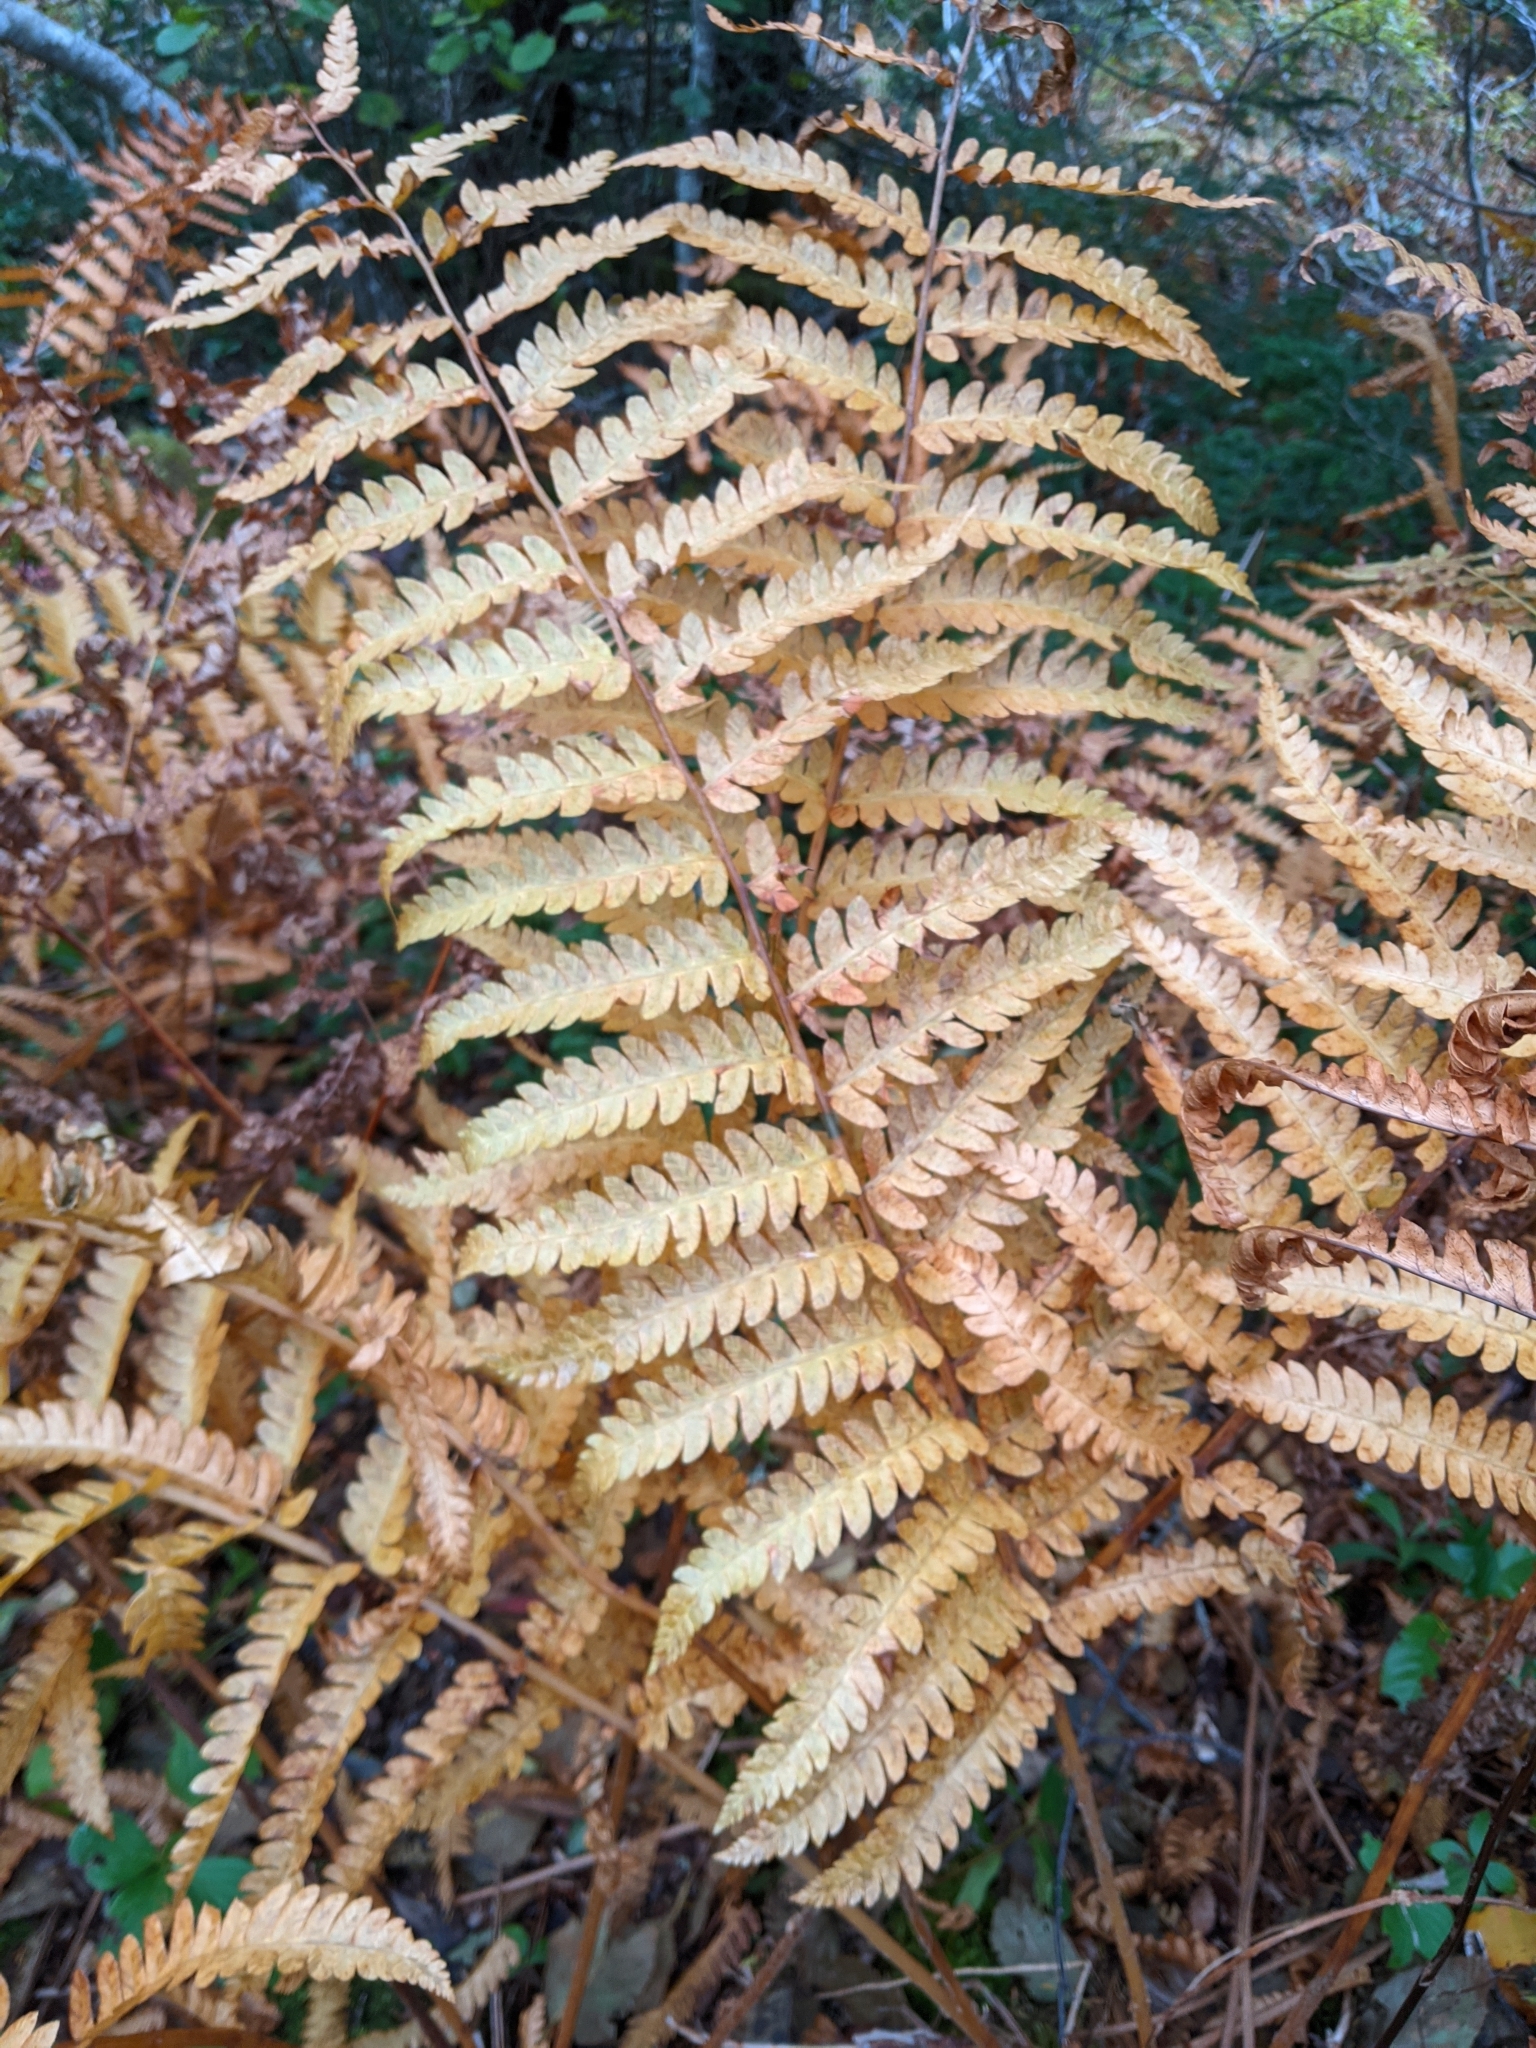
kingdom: Plantae
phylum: Tracheophyta
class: Polypodiopsida
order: Osmundales
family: Osmundaceae
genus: Osmundastrum
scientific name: Osmundastrum cinnamomeum
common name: Cinnamon fern
